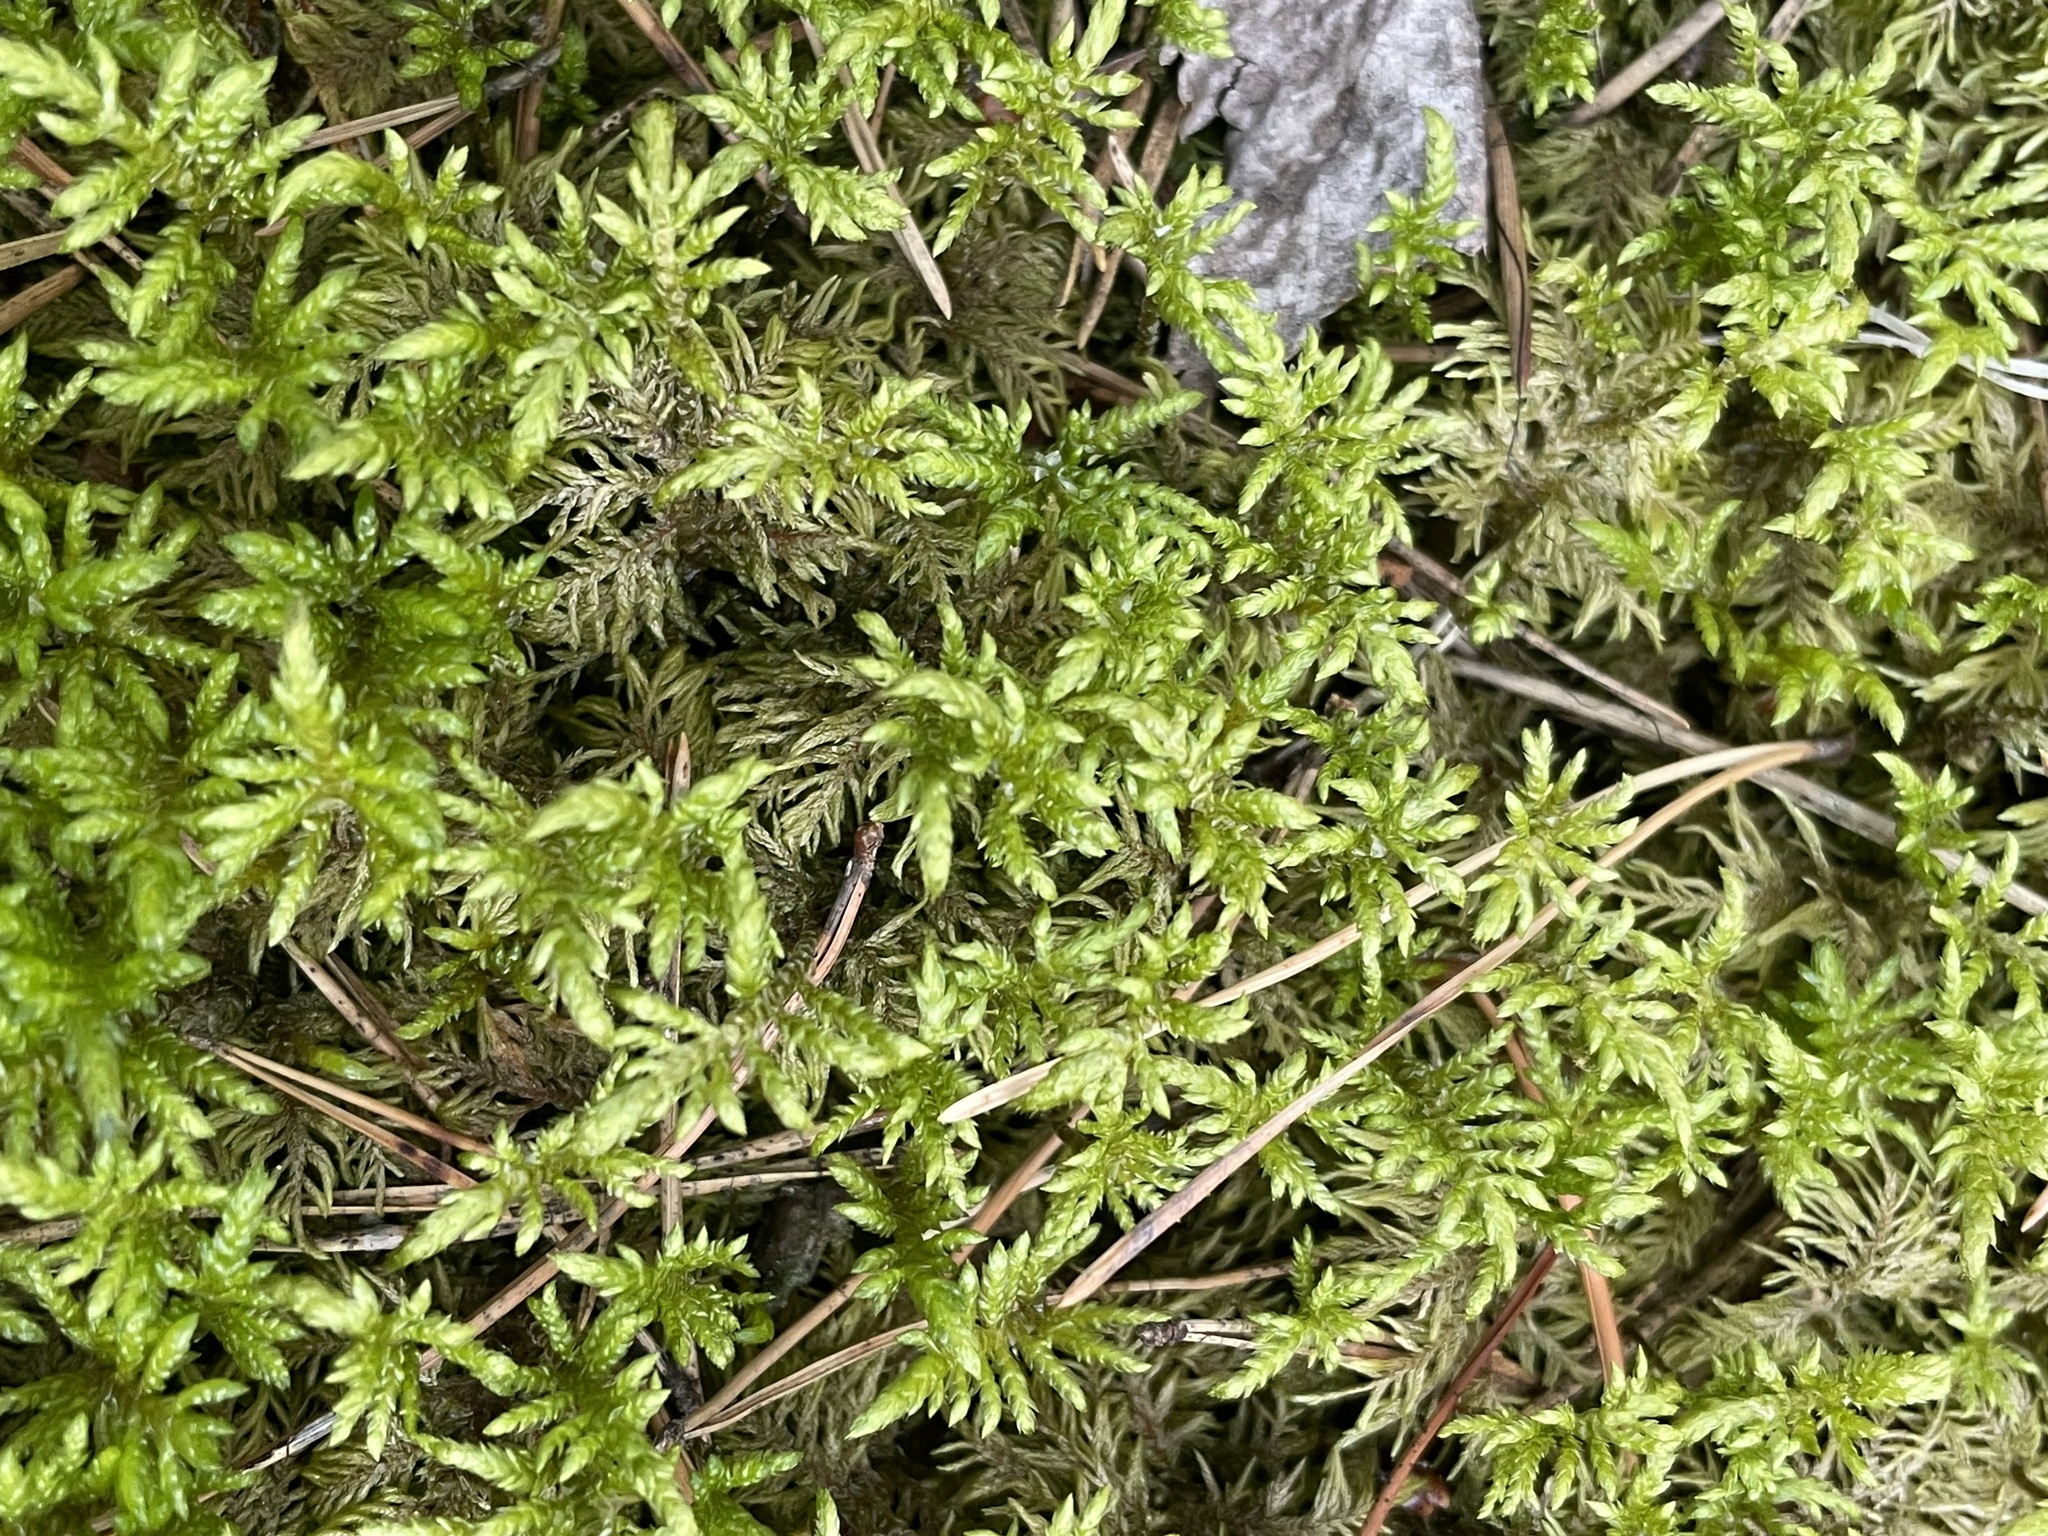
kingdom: Plantae
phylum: Bryophyta
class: Bryopsida
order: Hypnales
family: Hylocomiaceae
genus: Pleurozium
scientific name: Pleurozium schreberi
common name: Red-stemmed feather moss
